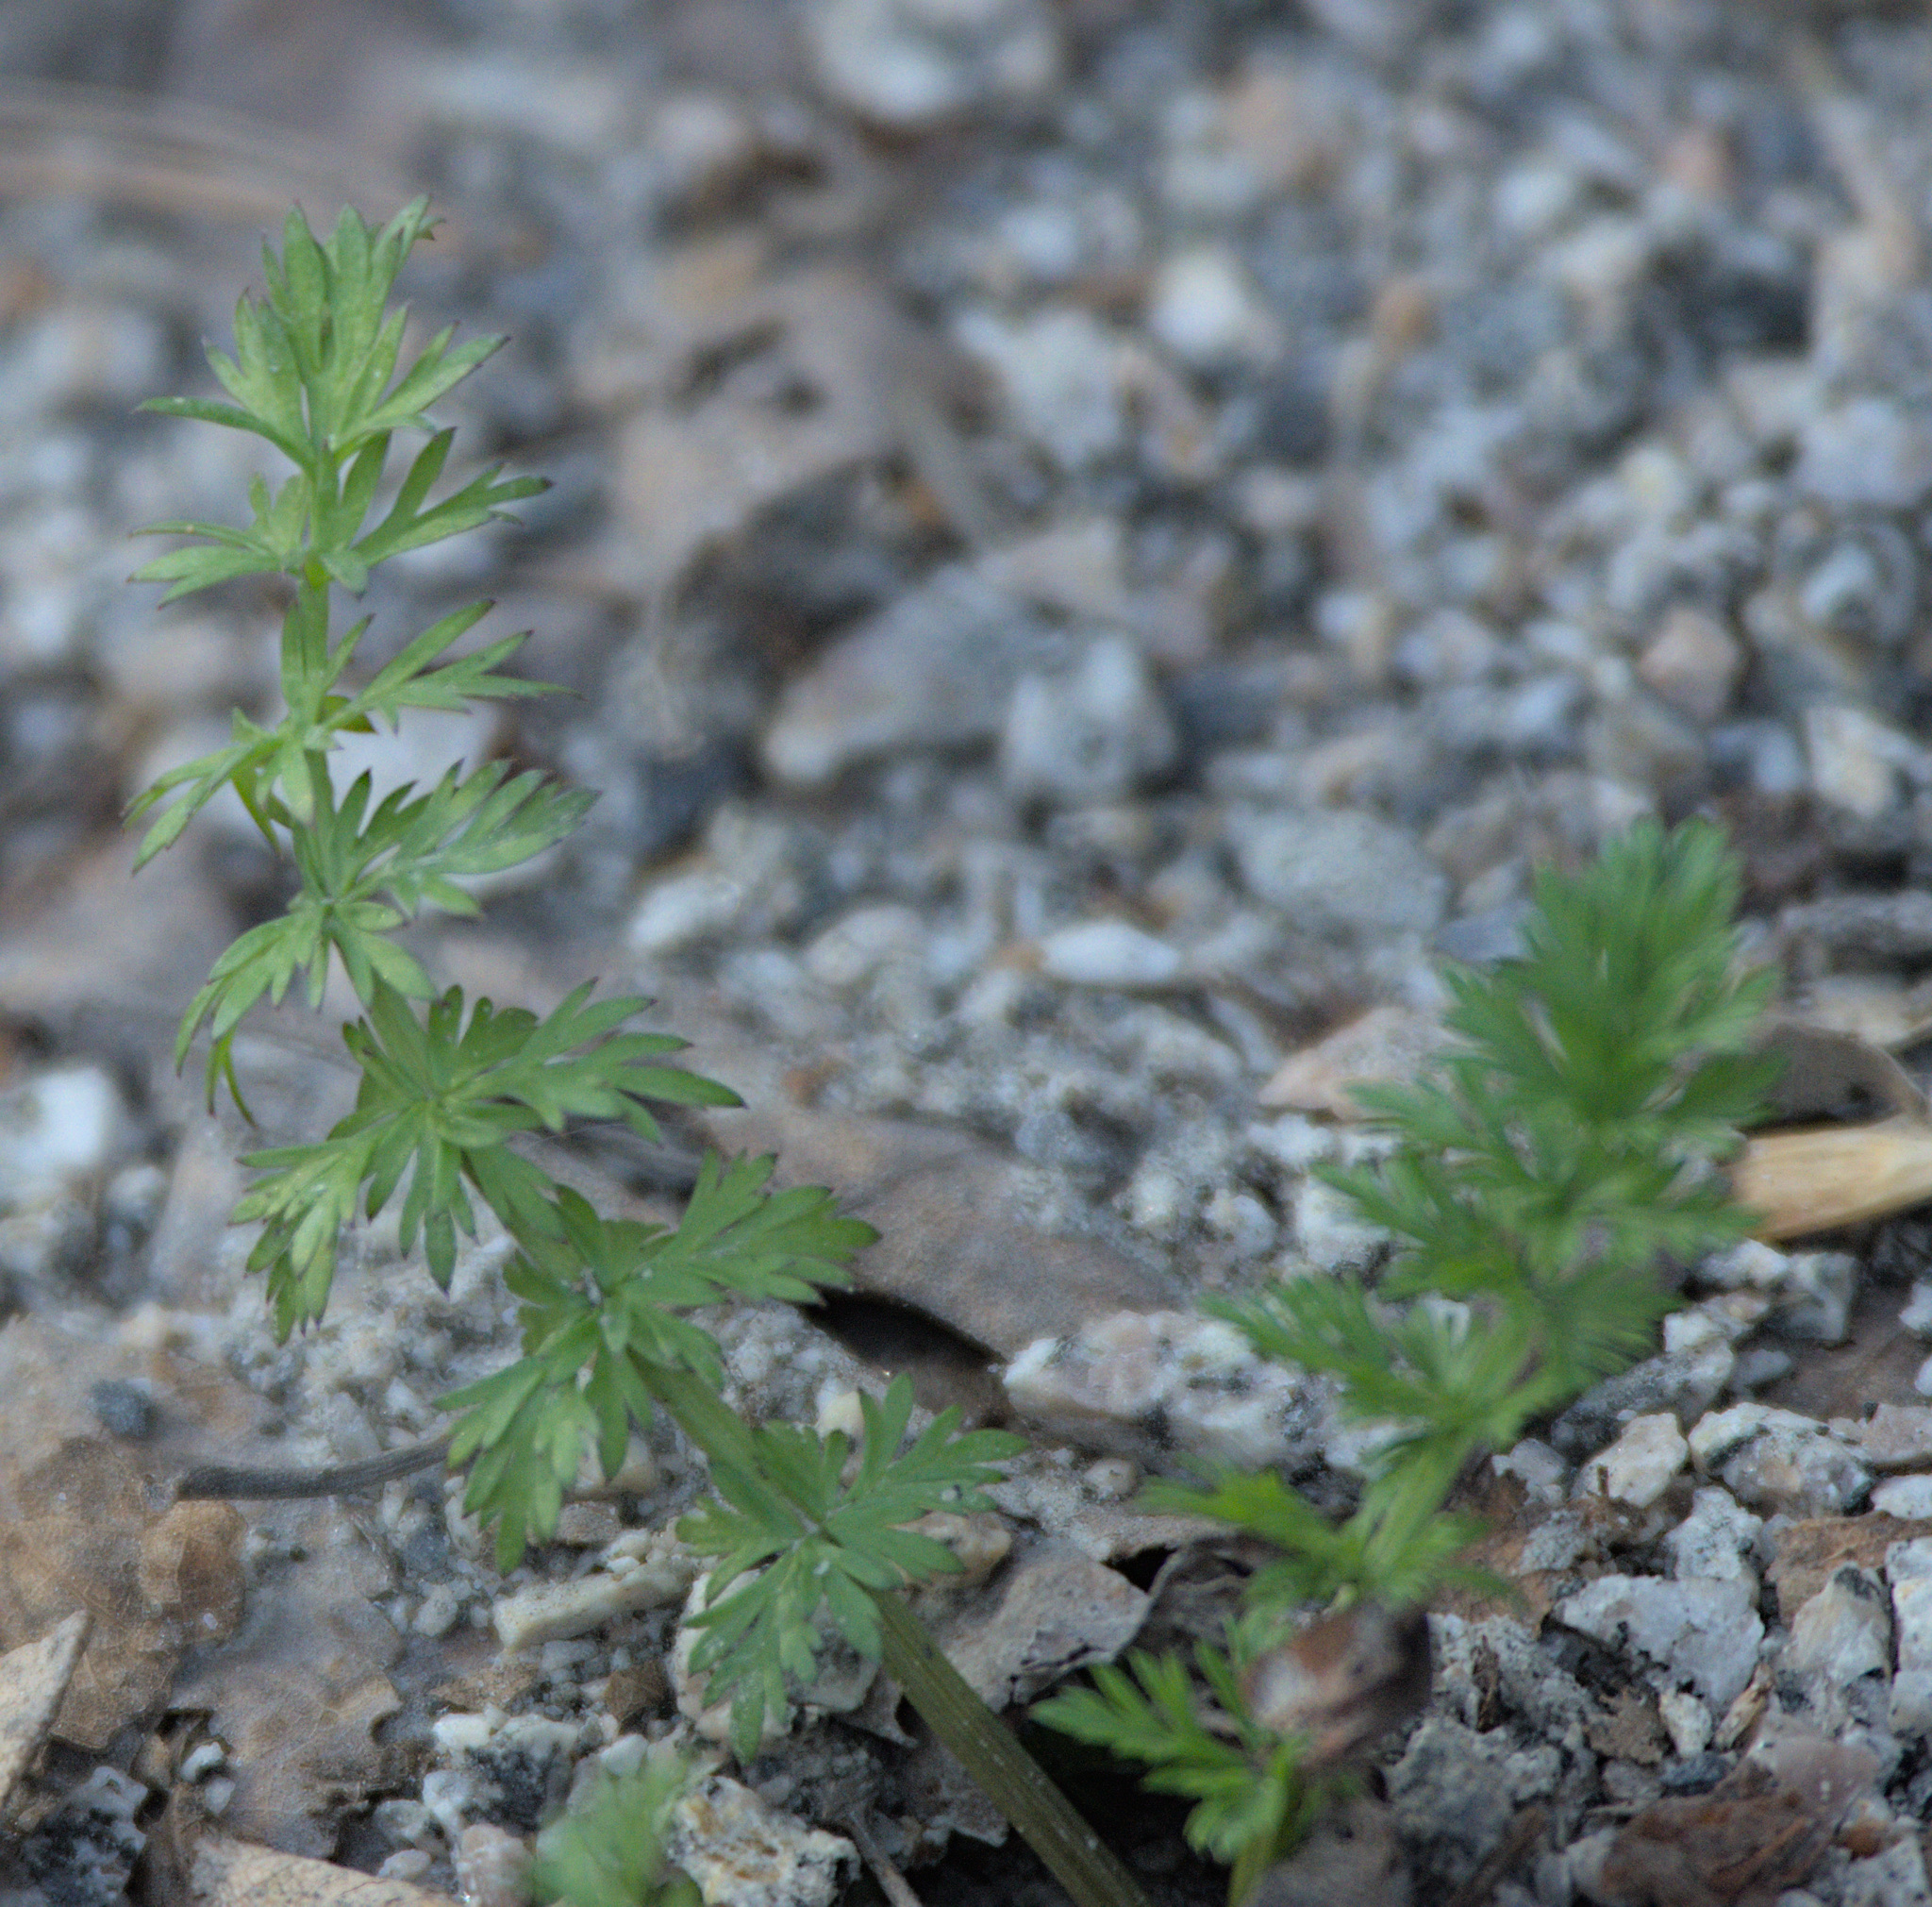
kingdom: Plantae
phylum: Tracheophyta
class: Magnoliopsida
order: Apiales
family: Apiaceae
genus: Carum
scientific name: Carum carvi
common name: Caraway
